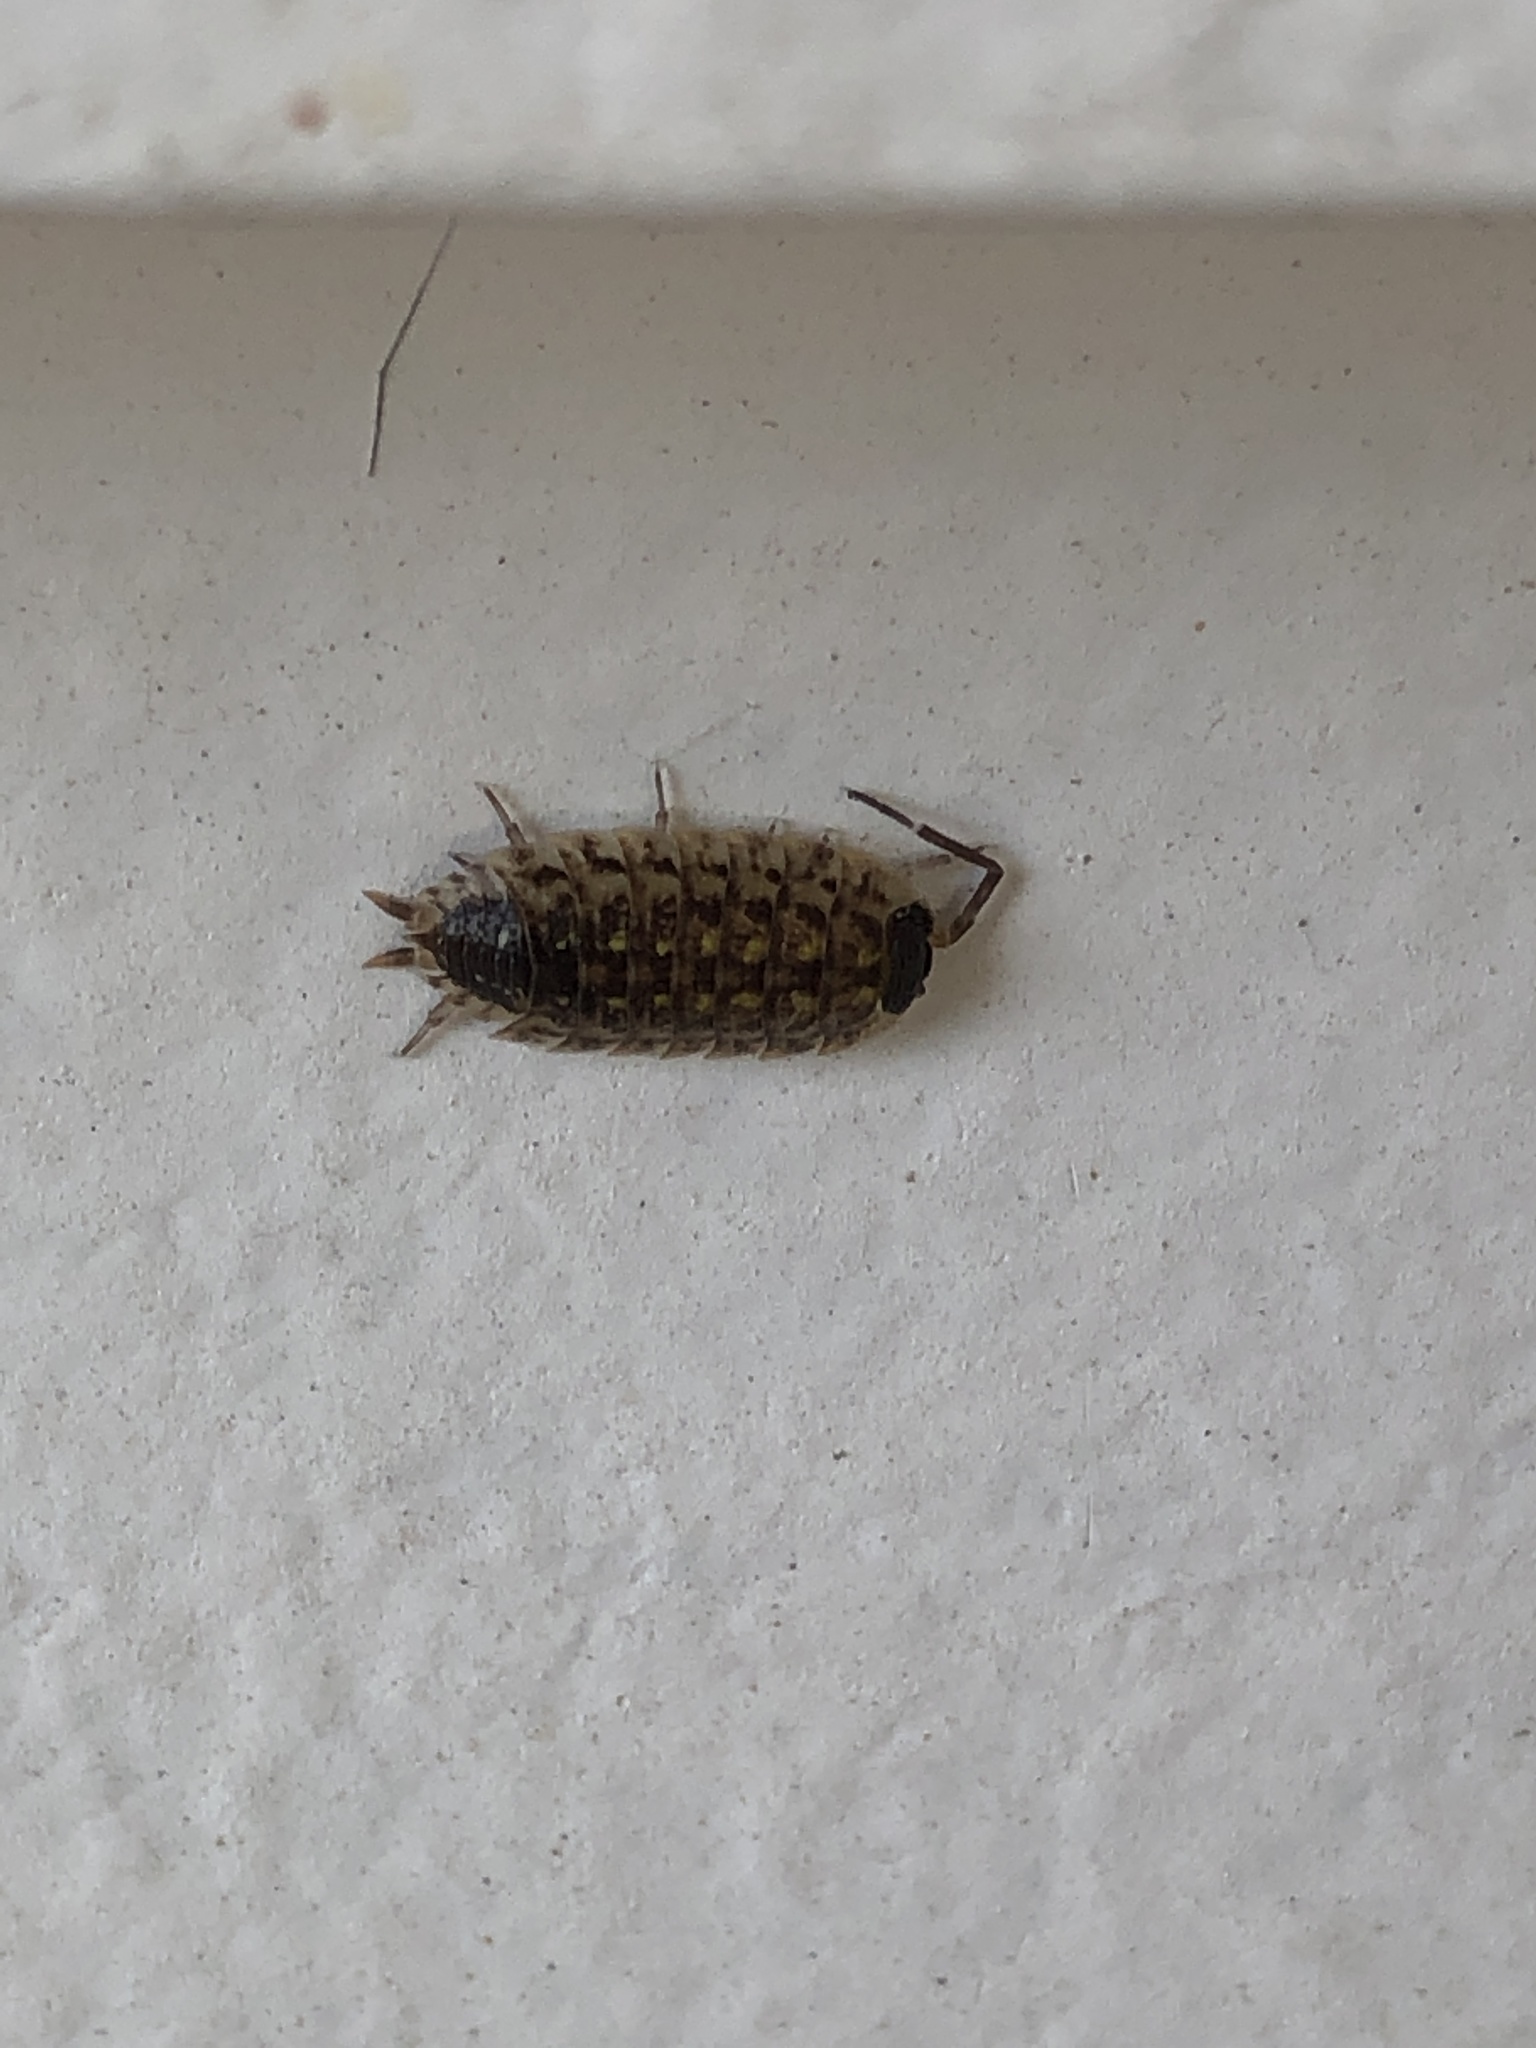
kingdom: Animalia
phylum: Arthropoda
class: Malacostraca
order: Isopoda
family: Porcellionidae
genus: Porcellio
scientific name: Porcellio spinicornis
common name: Painted woodlouse
